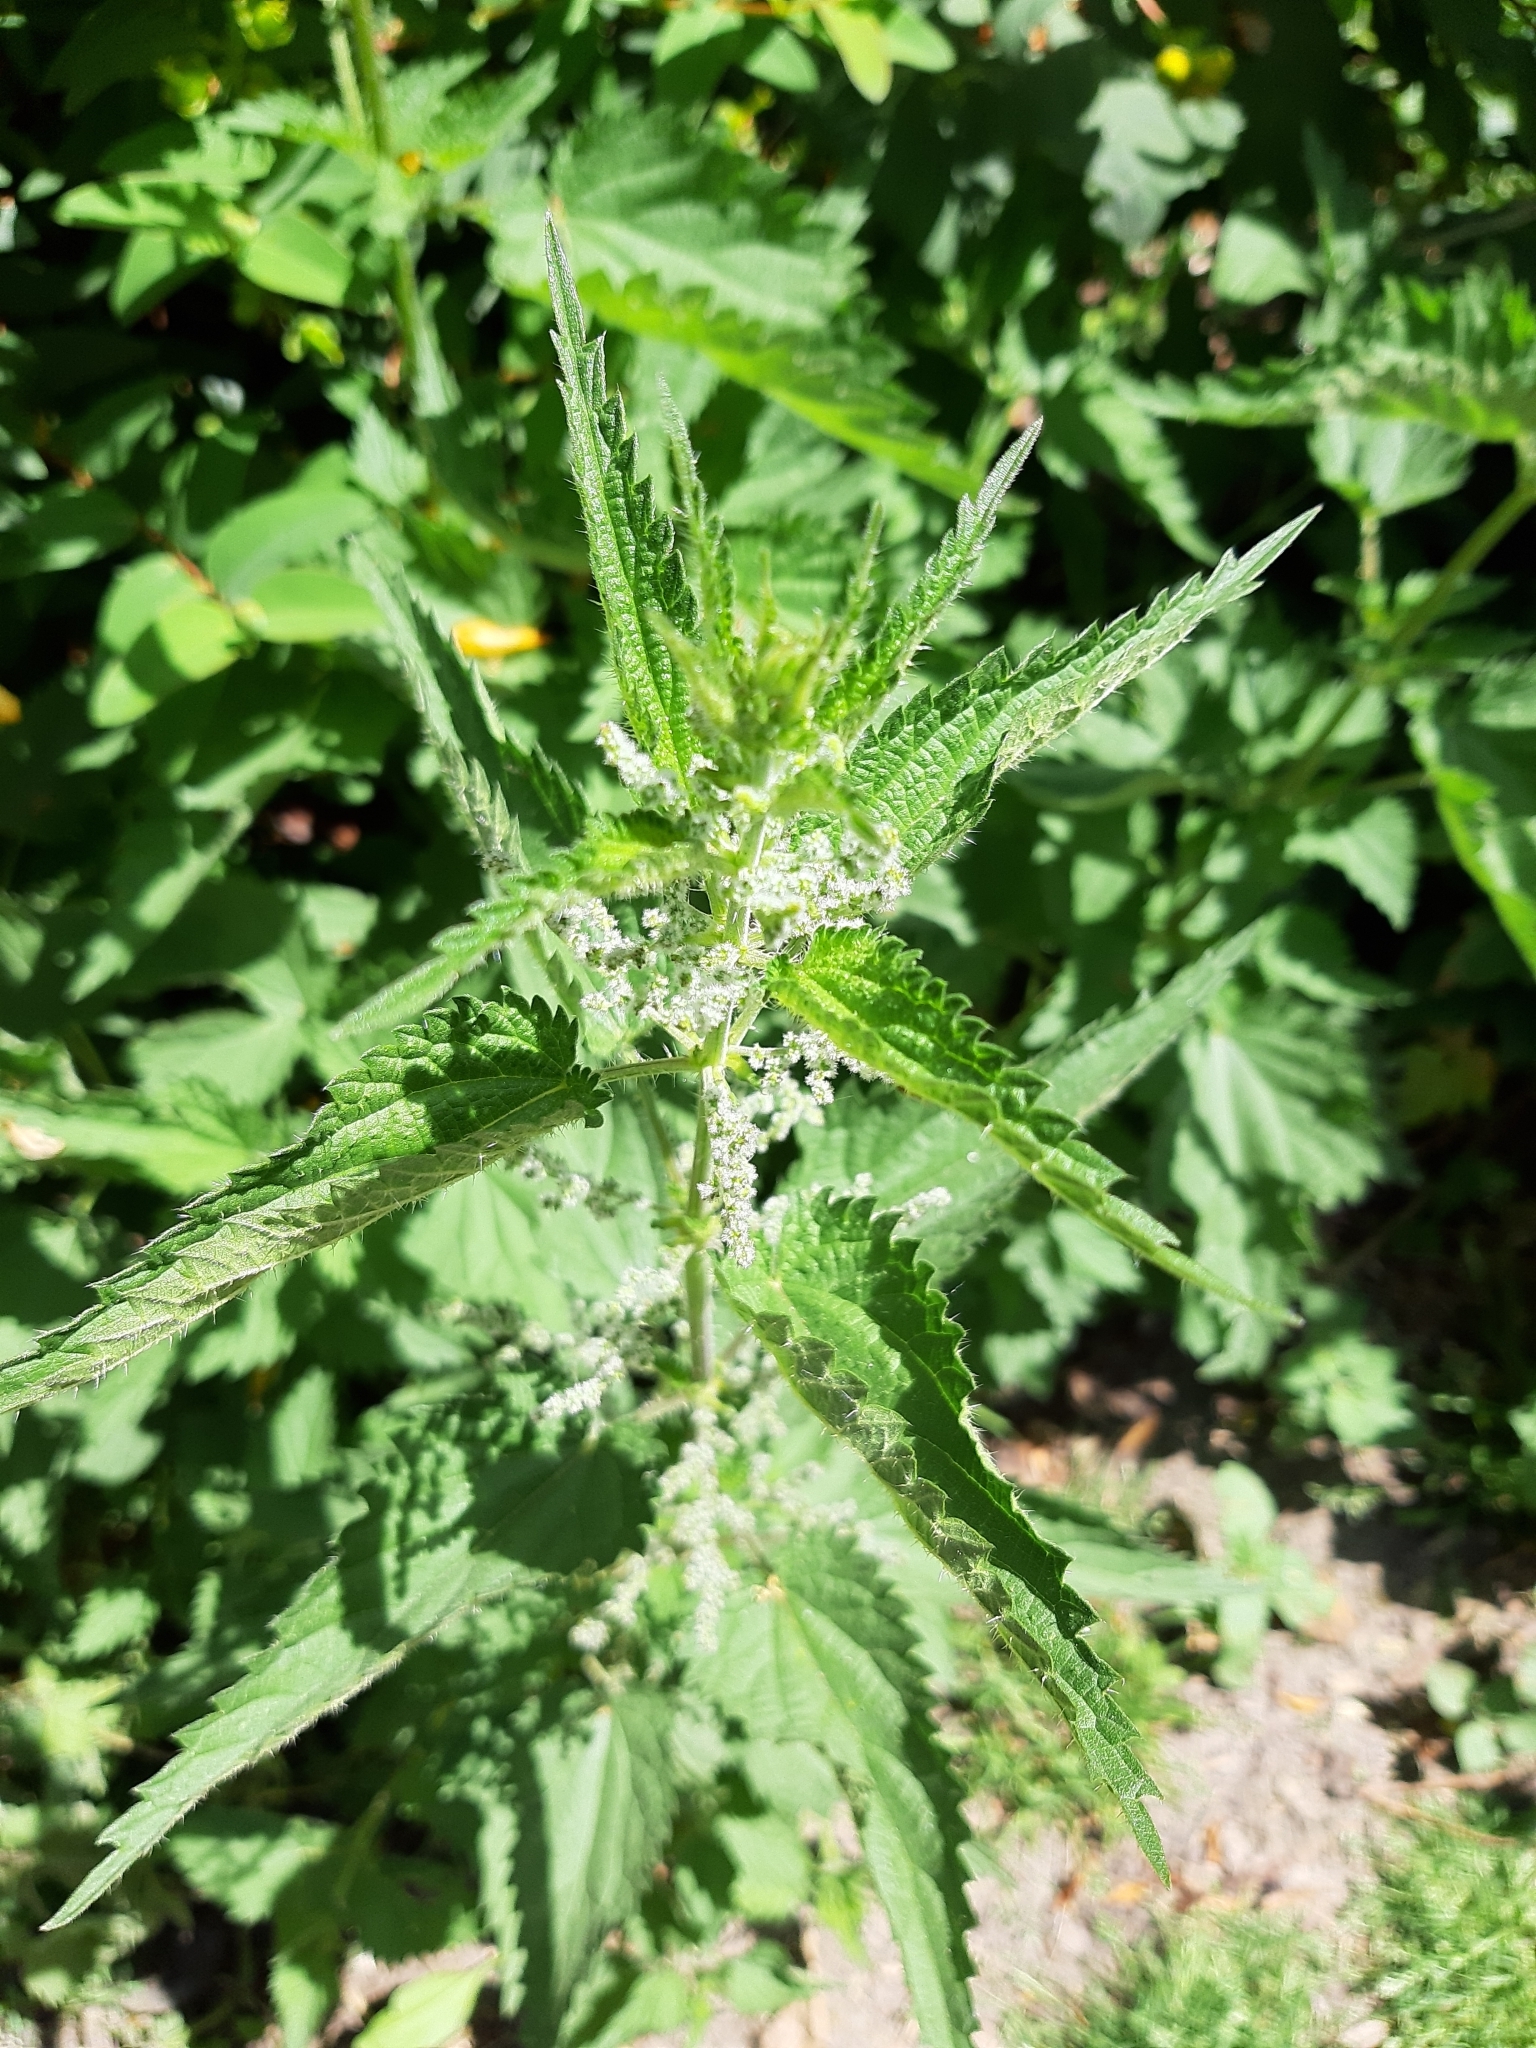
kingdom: Plantae
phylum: Tracheophyta
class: Magnoliopsida
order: Rosales
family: Urticaceae
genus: Urtica
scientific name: Urtica dioica
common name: Common nettle
